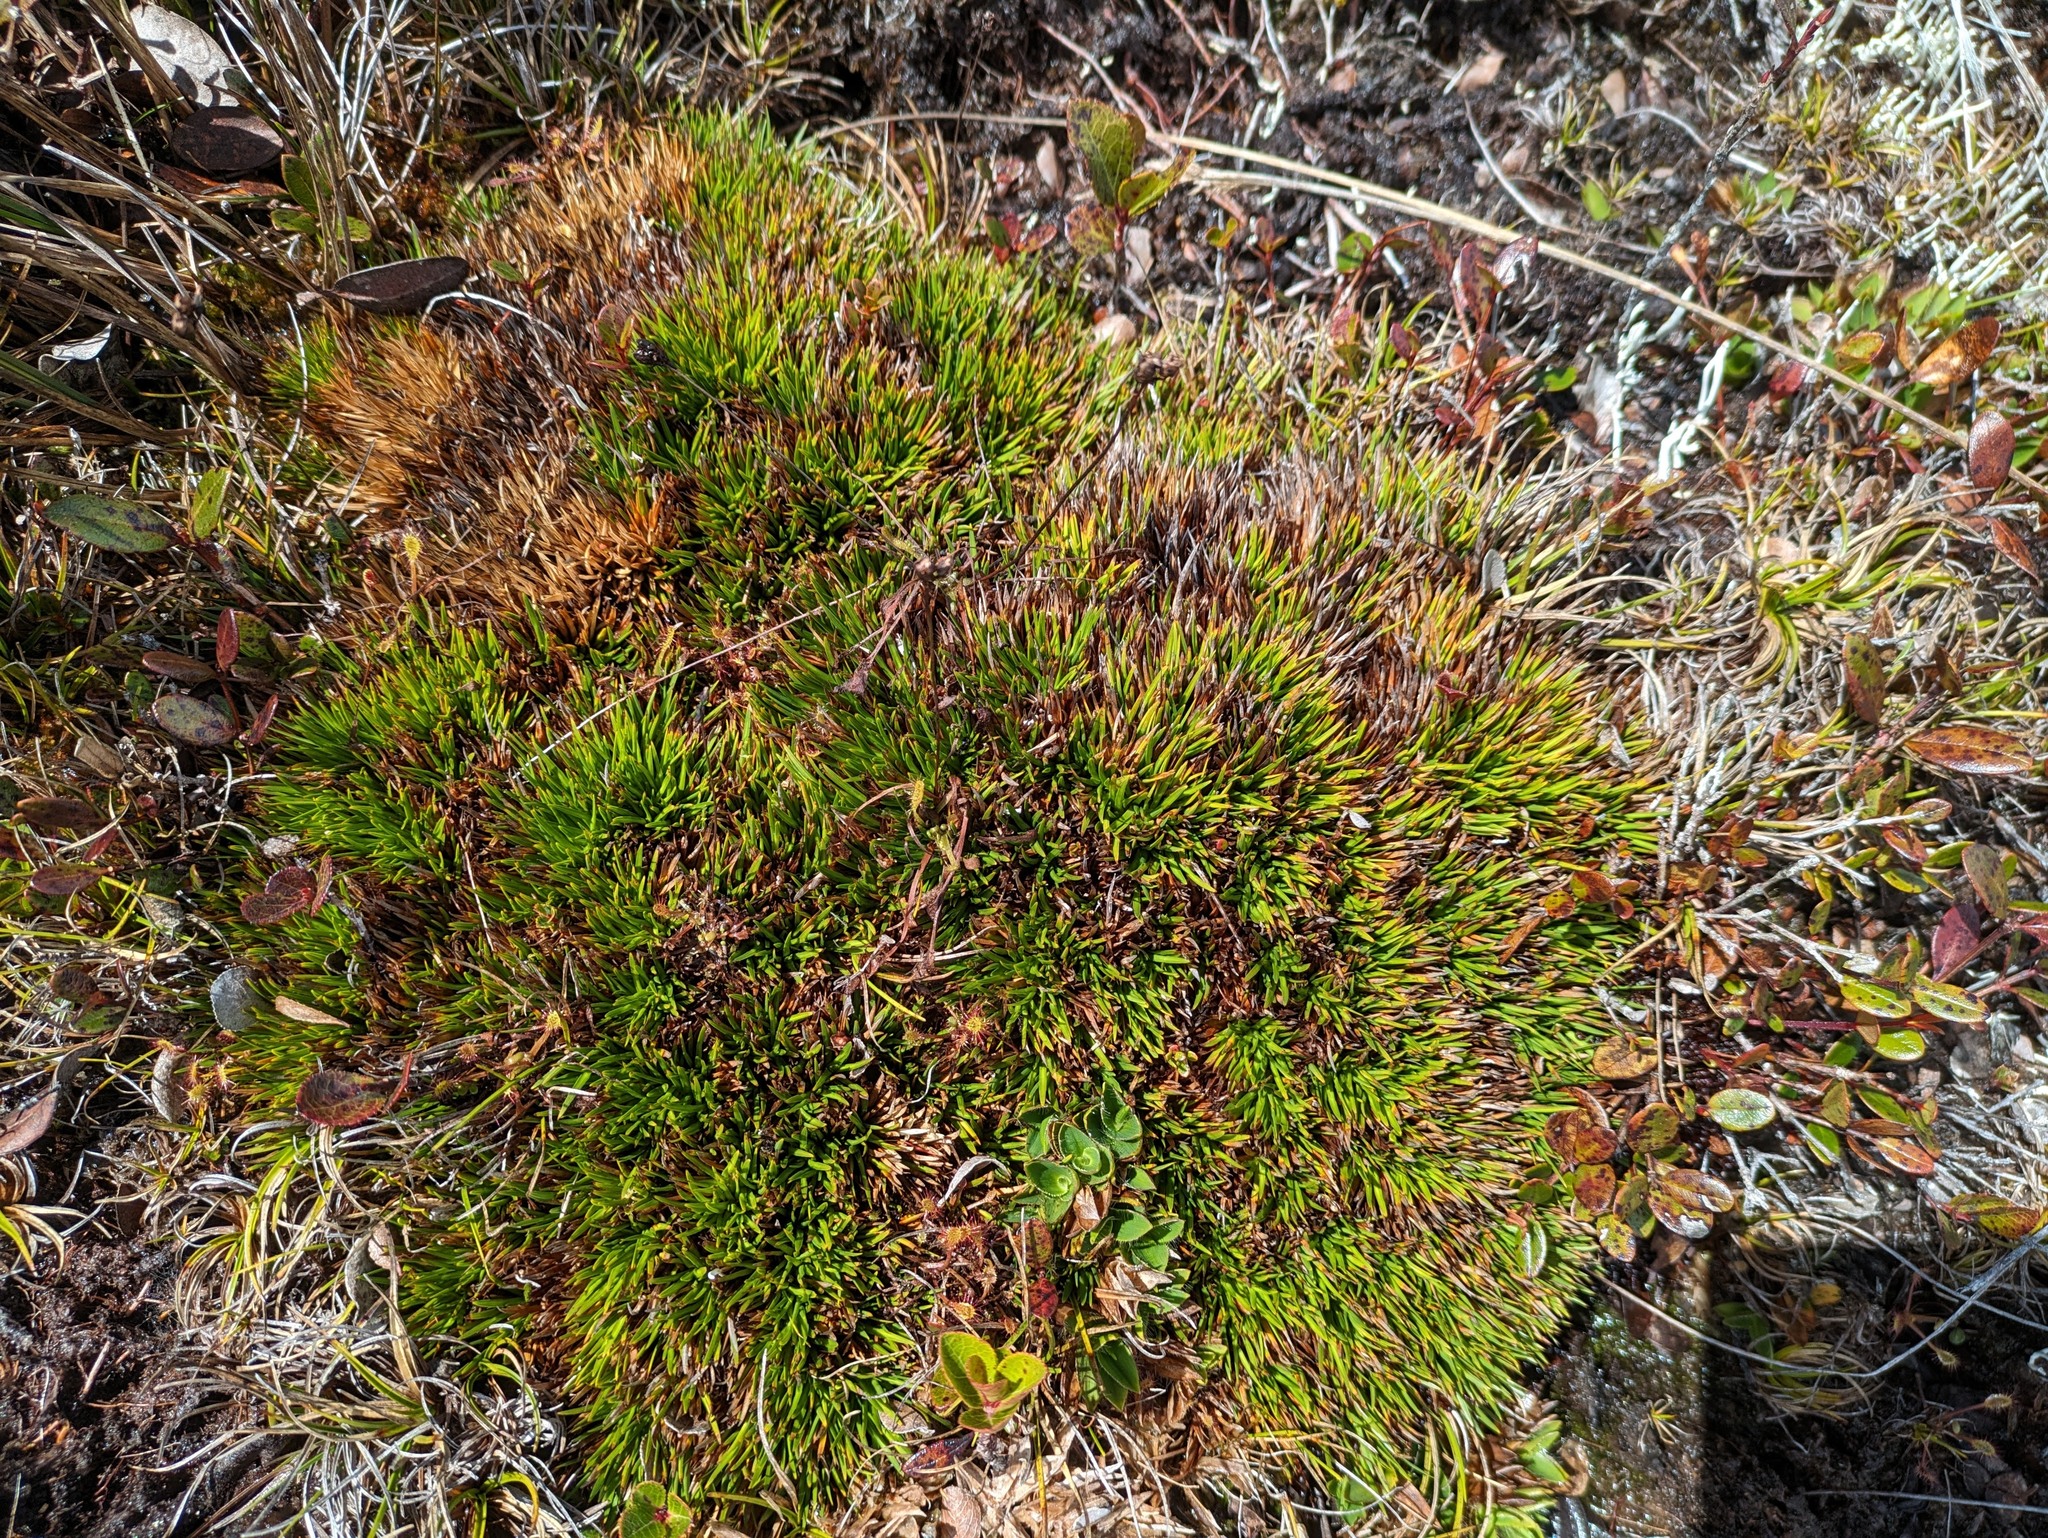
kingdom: Plantae
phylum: Tracheophyta
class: Liliopsida
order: Poales
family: Cyperaceae
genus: Oreobolus
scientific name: Oreobolus furcatus
